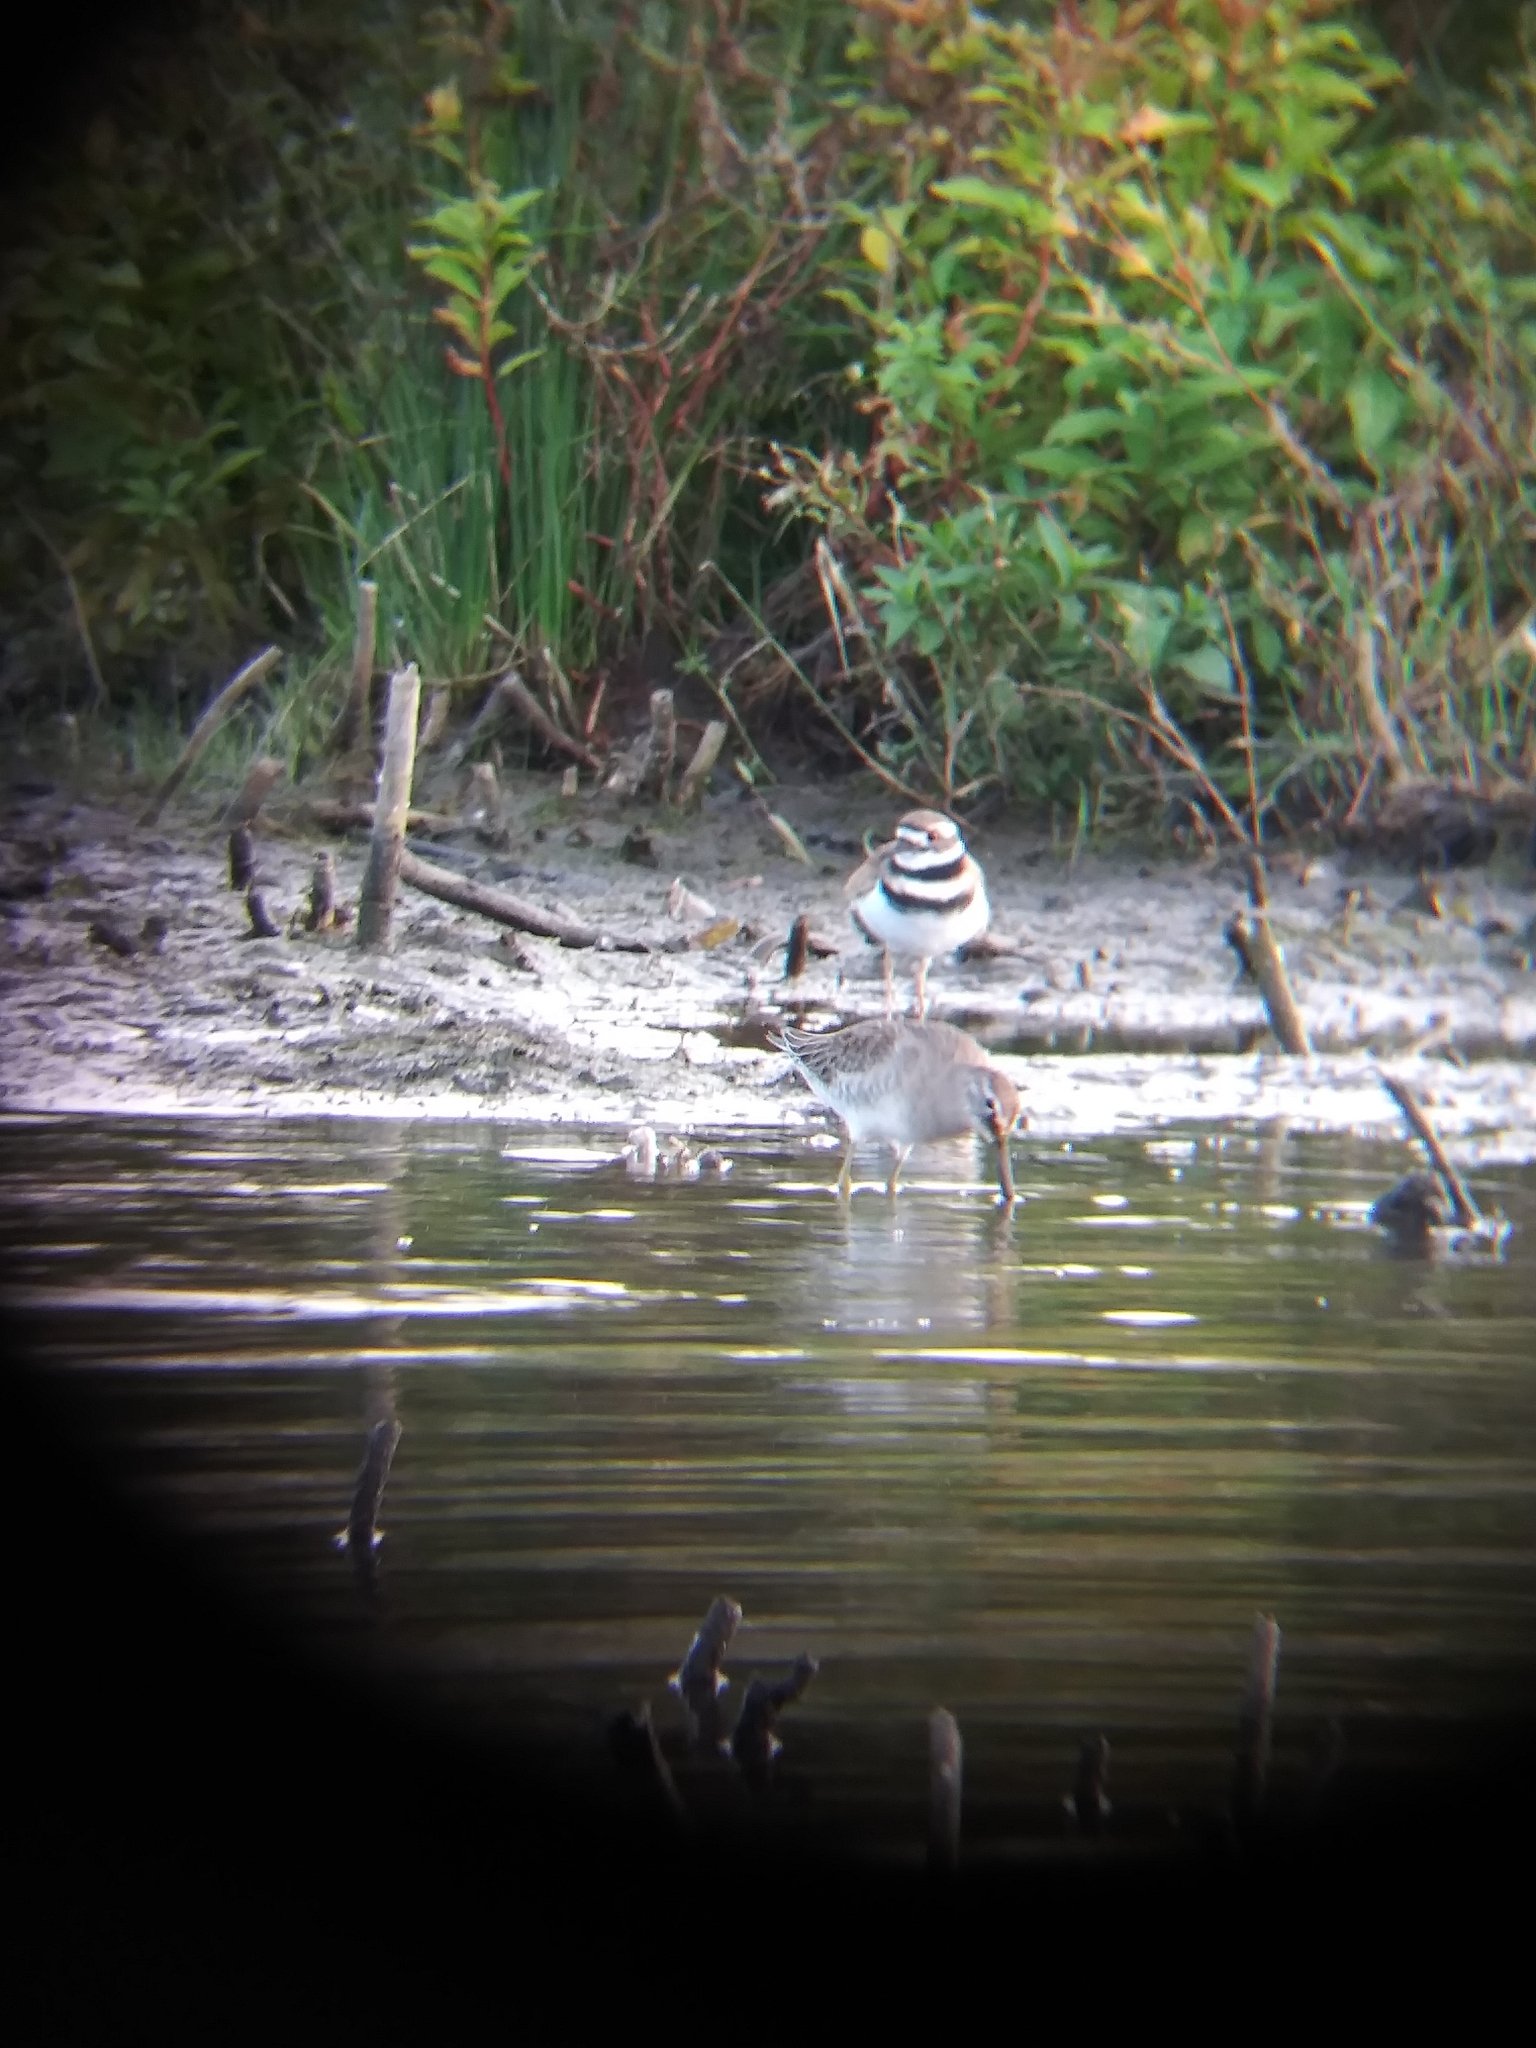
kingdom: Animalia
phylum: Chordata
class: Aves
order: Charadriiformes
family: Charadriidae
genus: Charadrius
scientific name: Charadrius vociferus
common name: Killdeer
